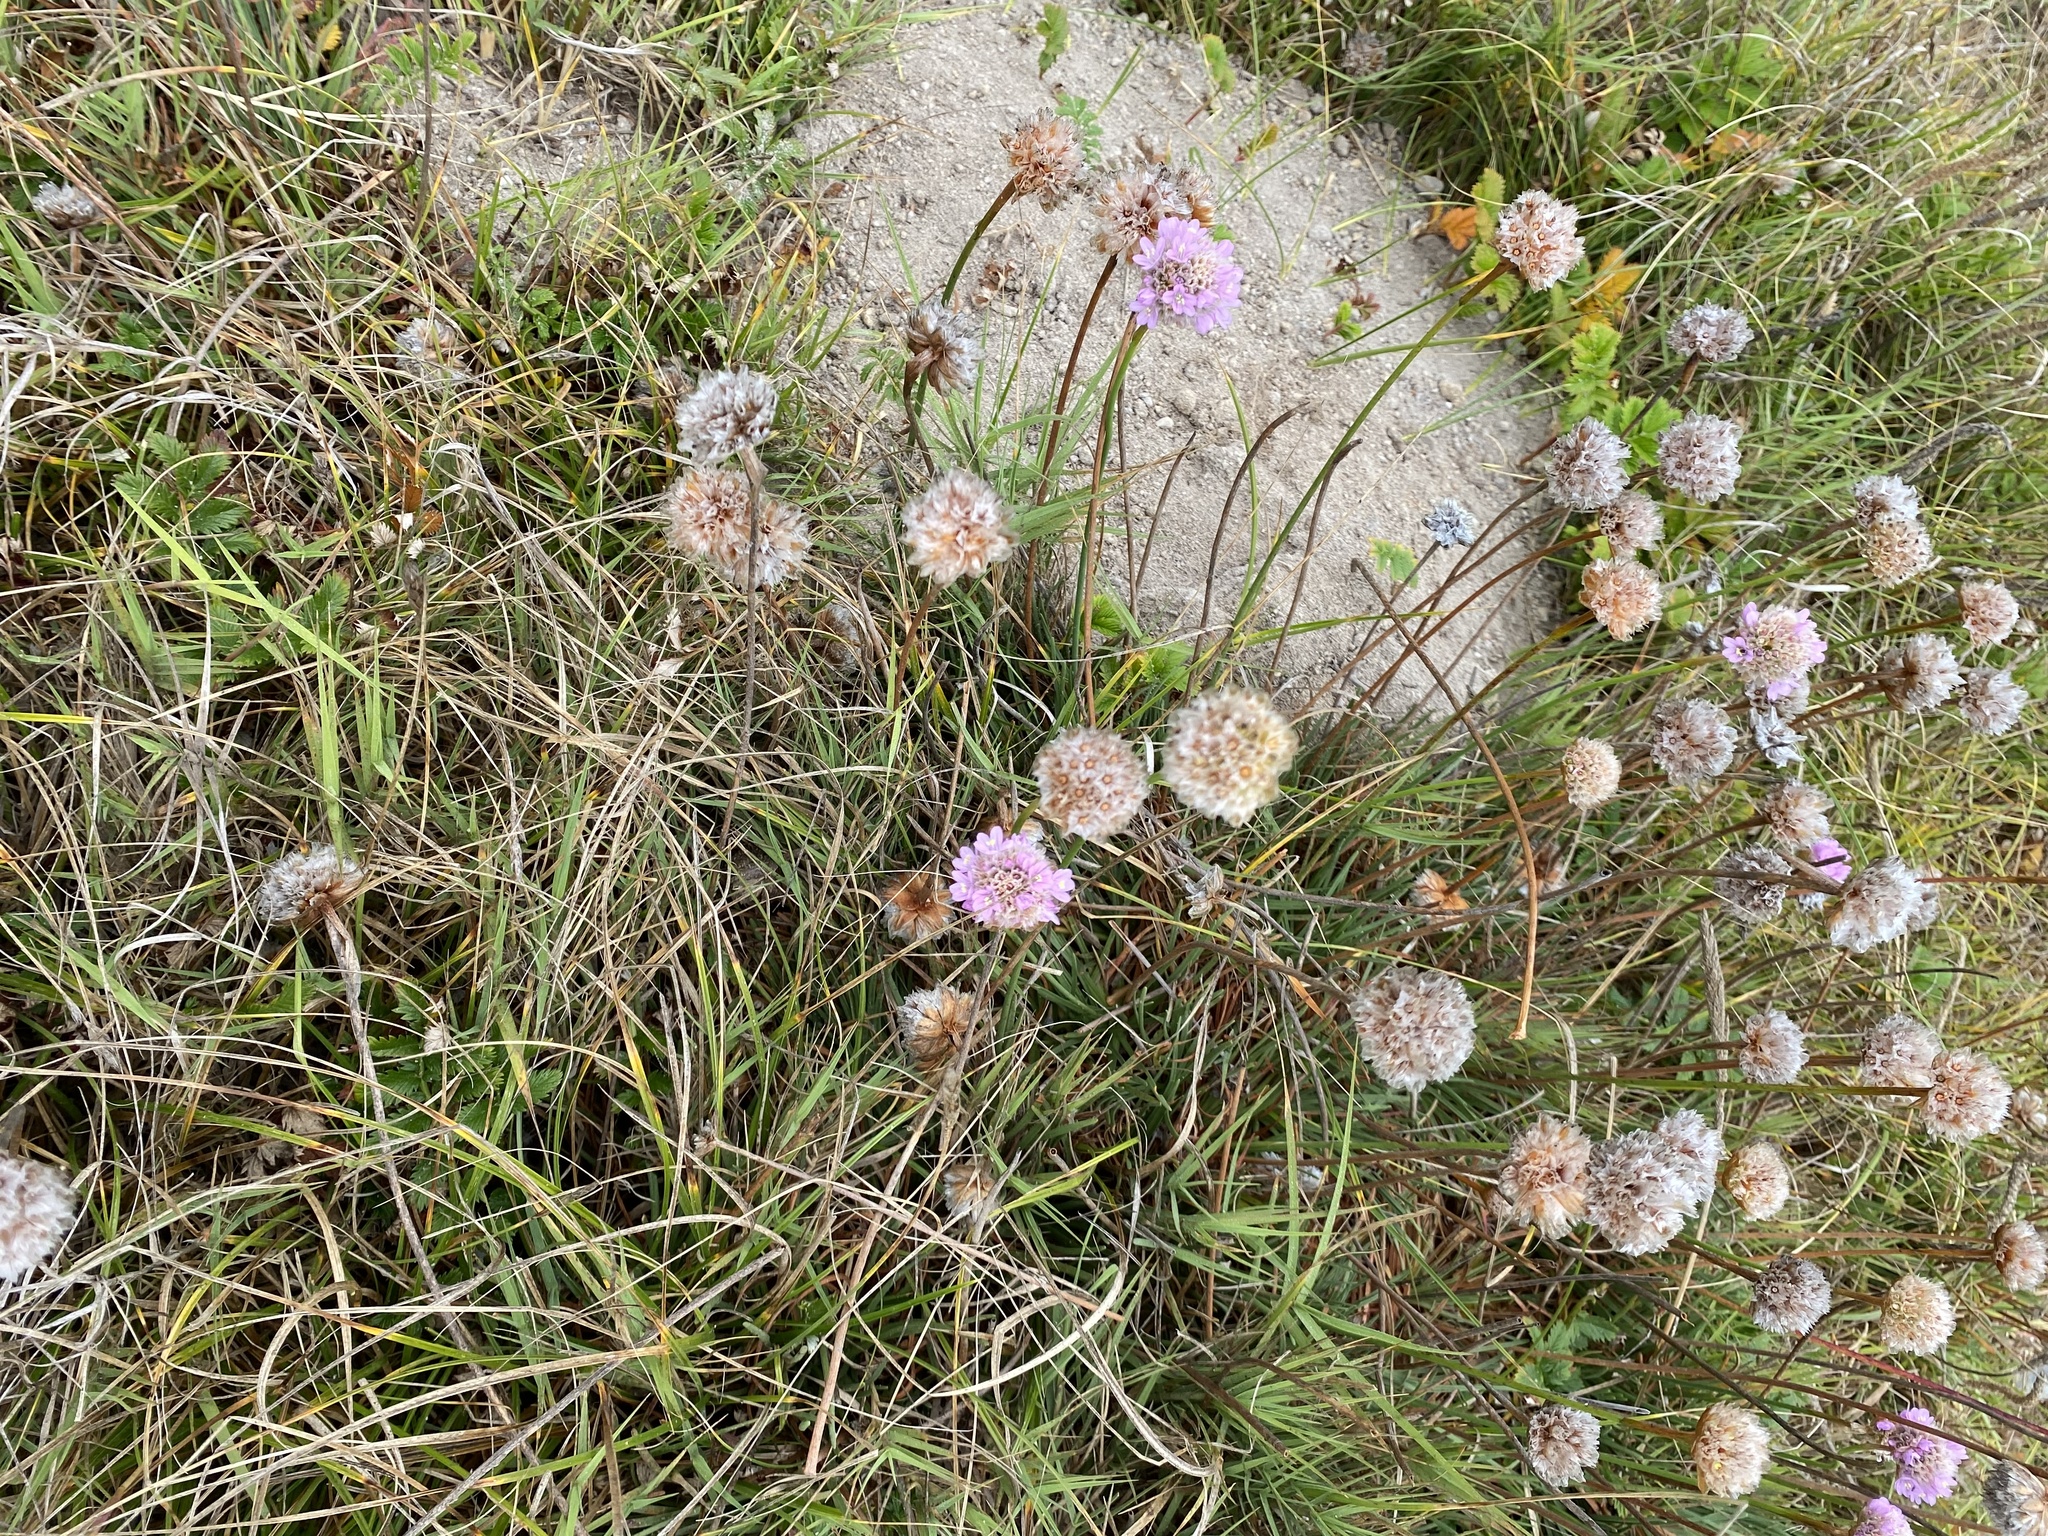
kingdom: Plantae
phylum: Tracheophyta
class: Magnoliopsida
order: Caryophyllales
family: Plumbaginaceae
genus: Armeria
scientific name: Armeria maritima
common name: Thrift
